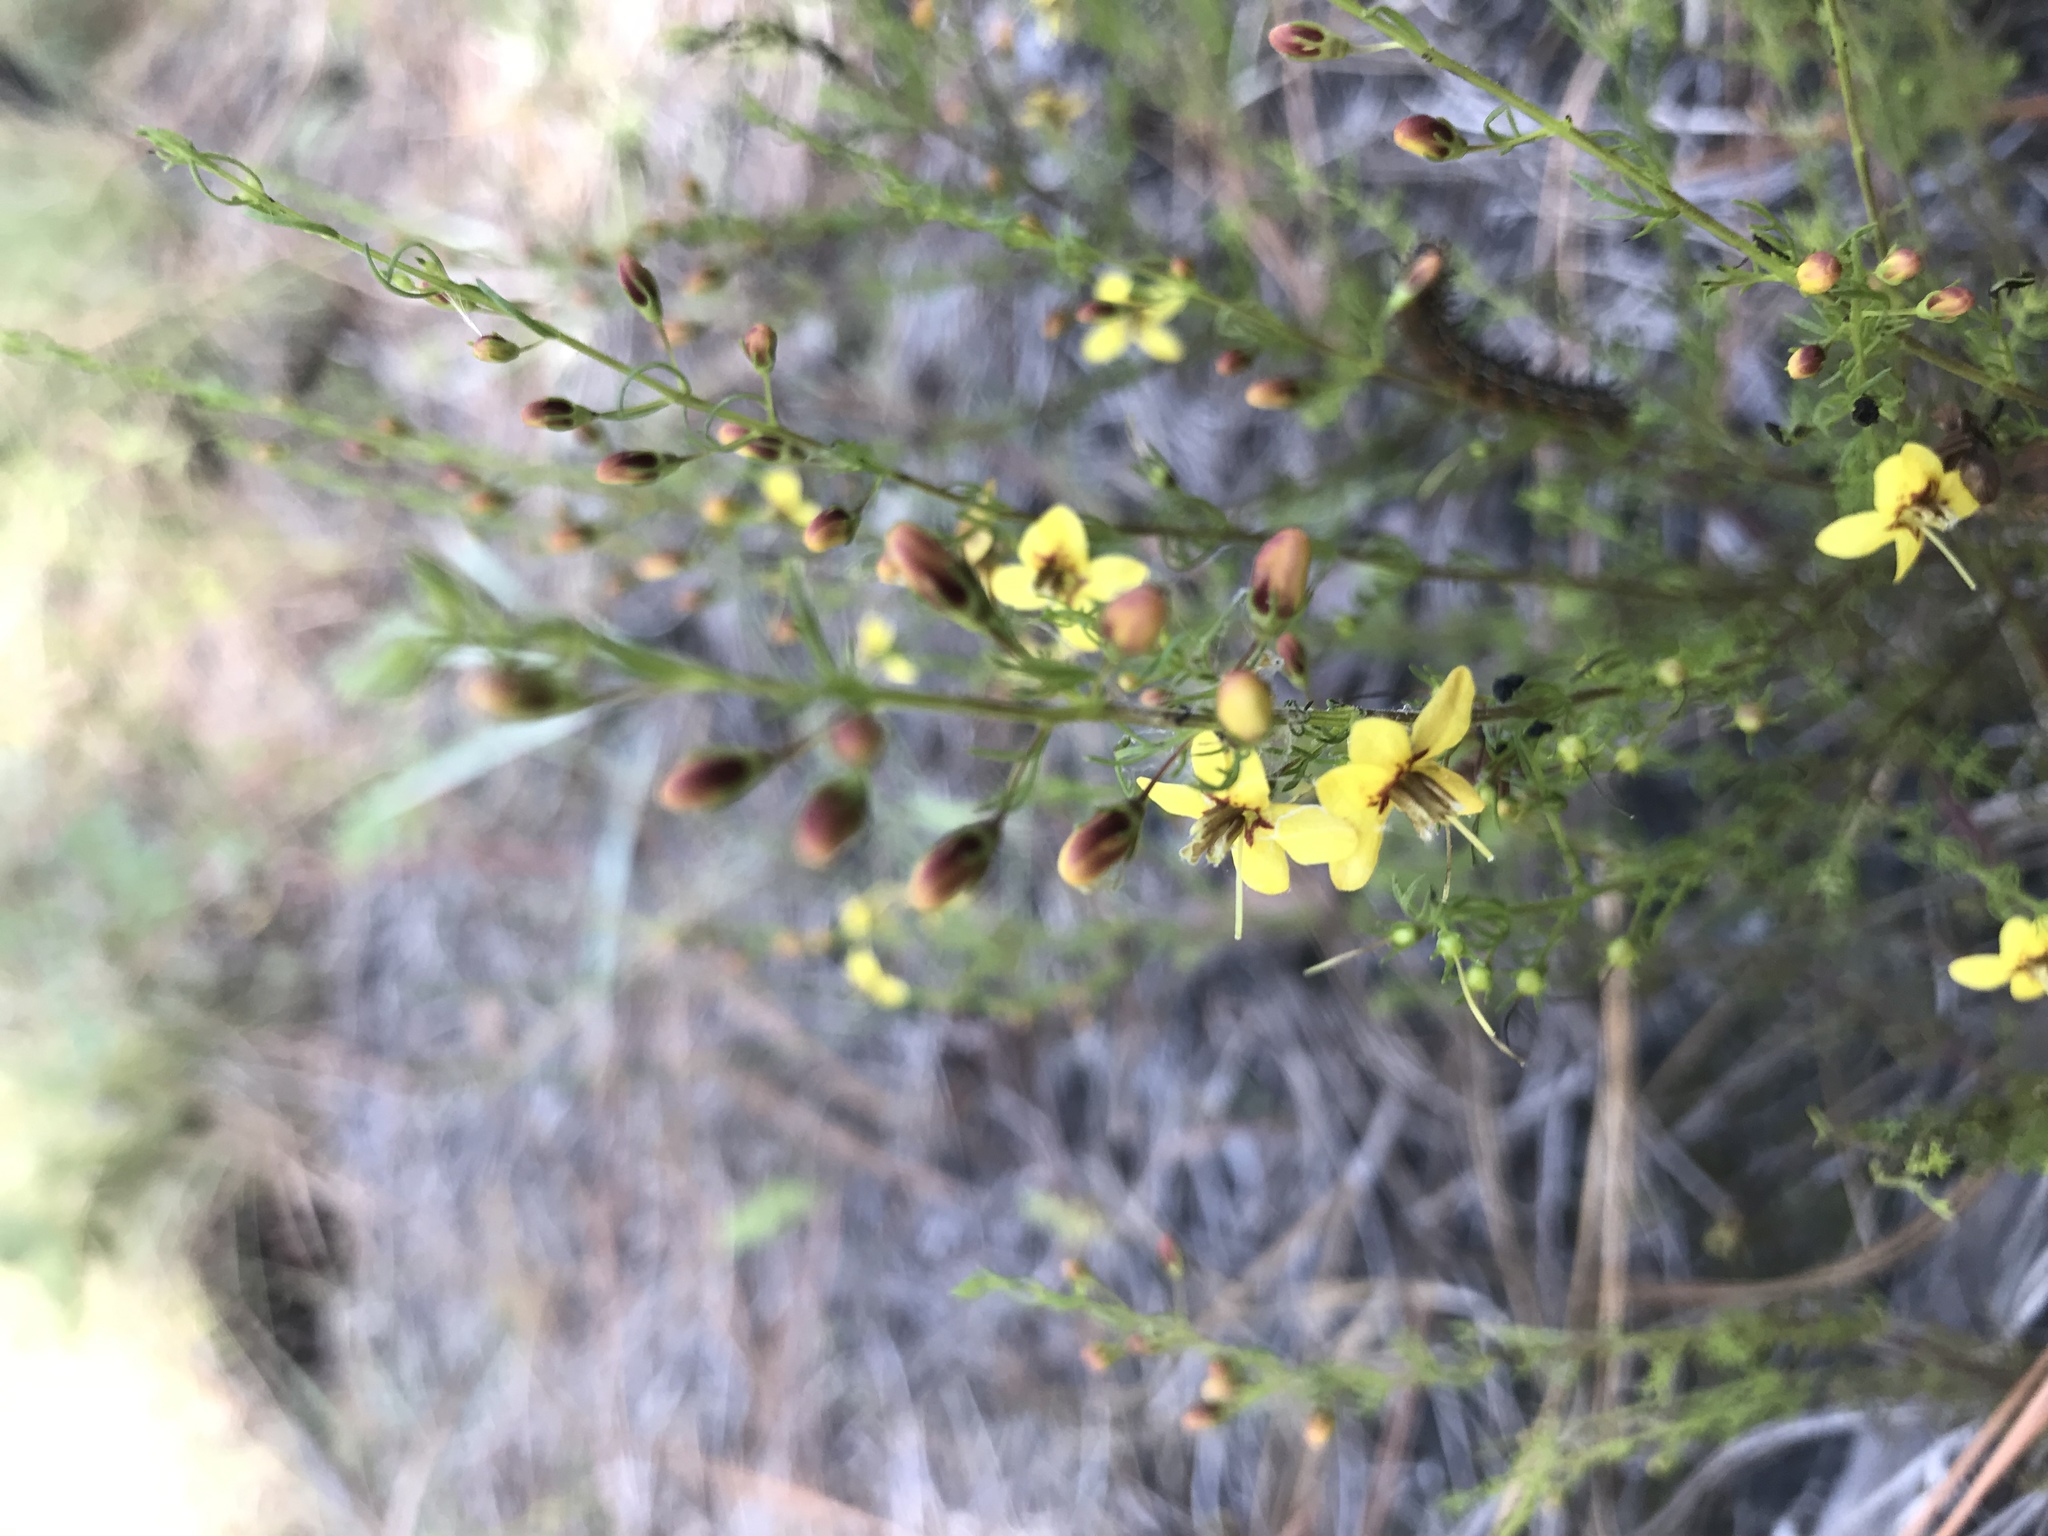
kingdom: Plantae
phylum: Tracheophyta
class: Magnoliopsida
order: Lamiales
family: Orobanchaceae
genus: Seymeria
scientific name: Seymeria cassioides
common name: Yaupon black-senna
